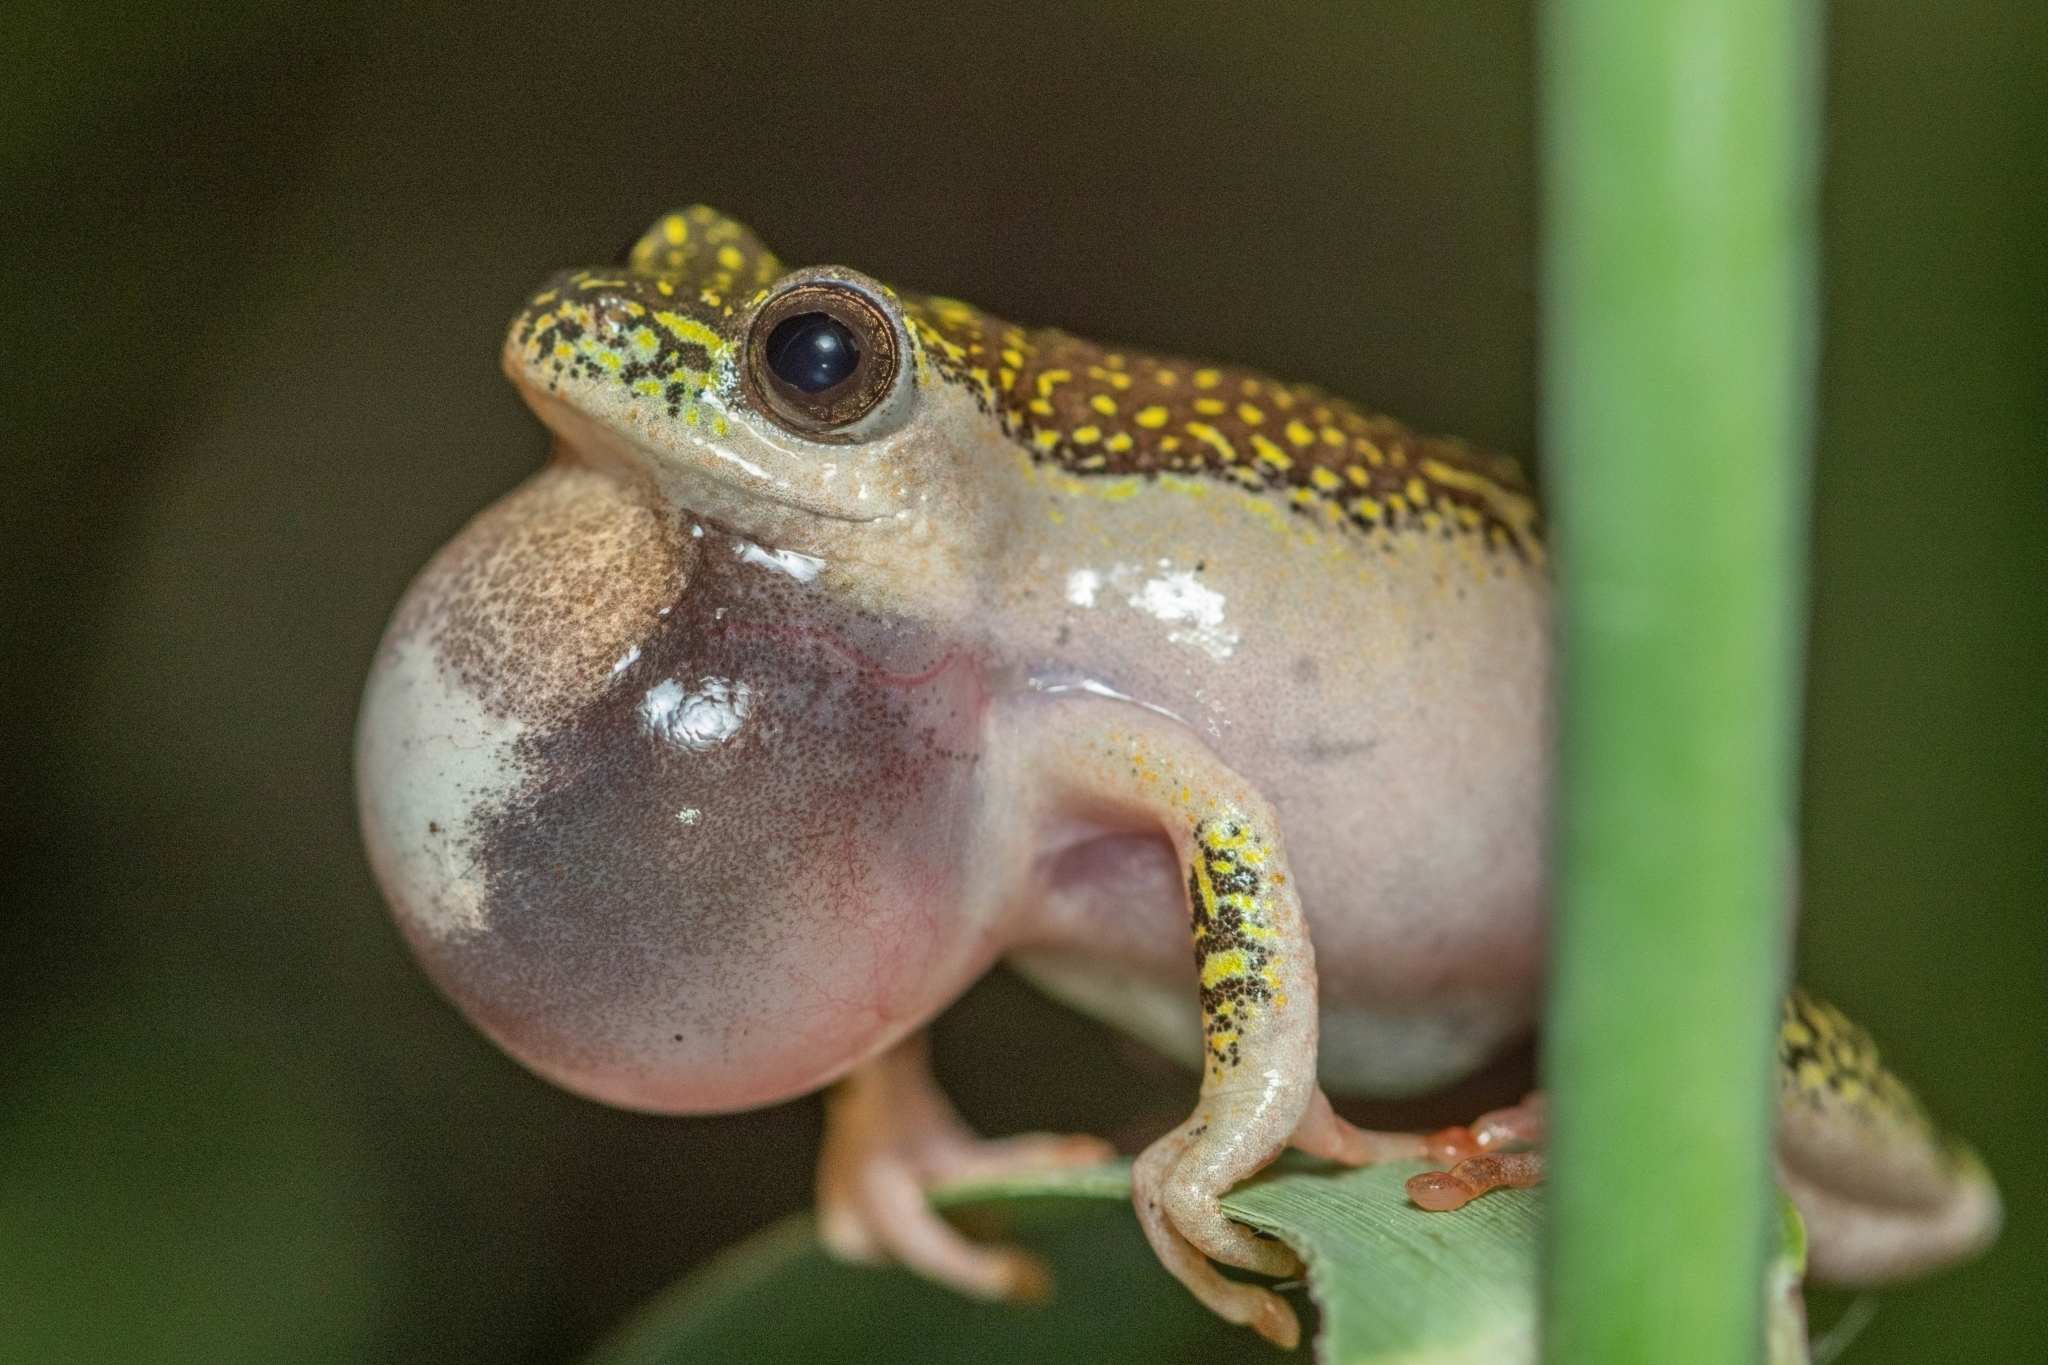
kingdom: Animalia
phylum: Chordata
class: Amphibia
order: Anura
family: Hyperoliidae
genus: Hyperolius
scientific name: Hyperolius marmoratus
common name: Painted reed frog
